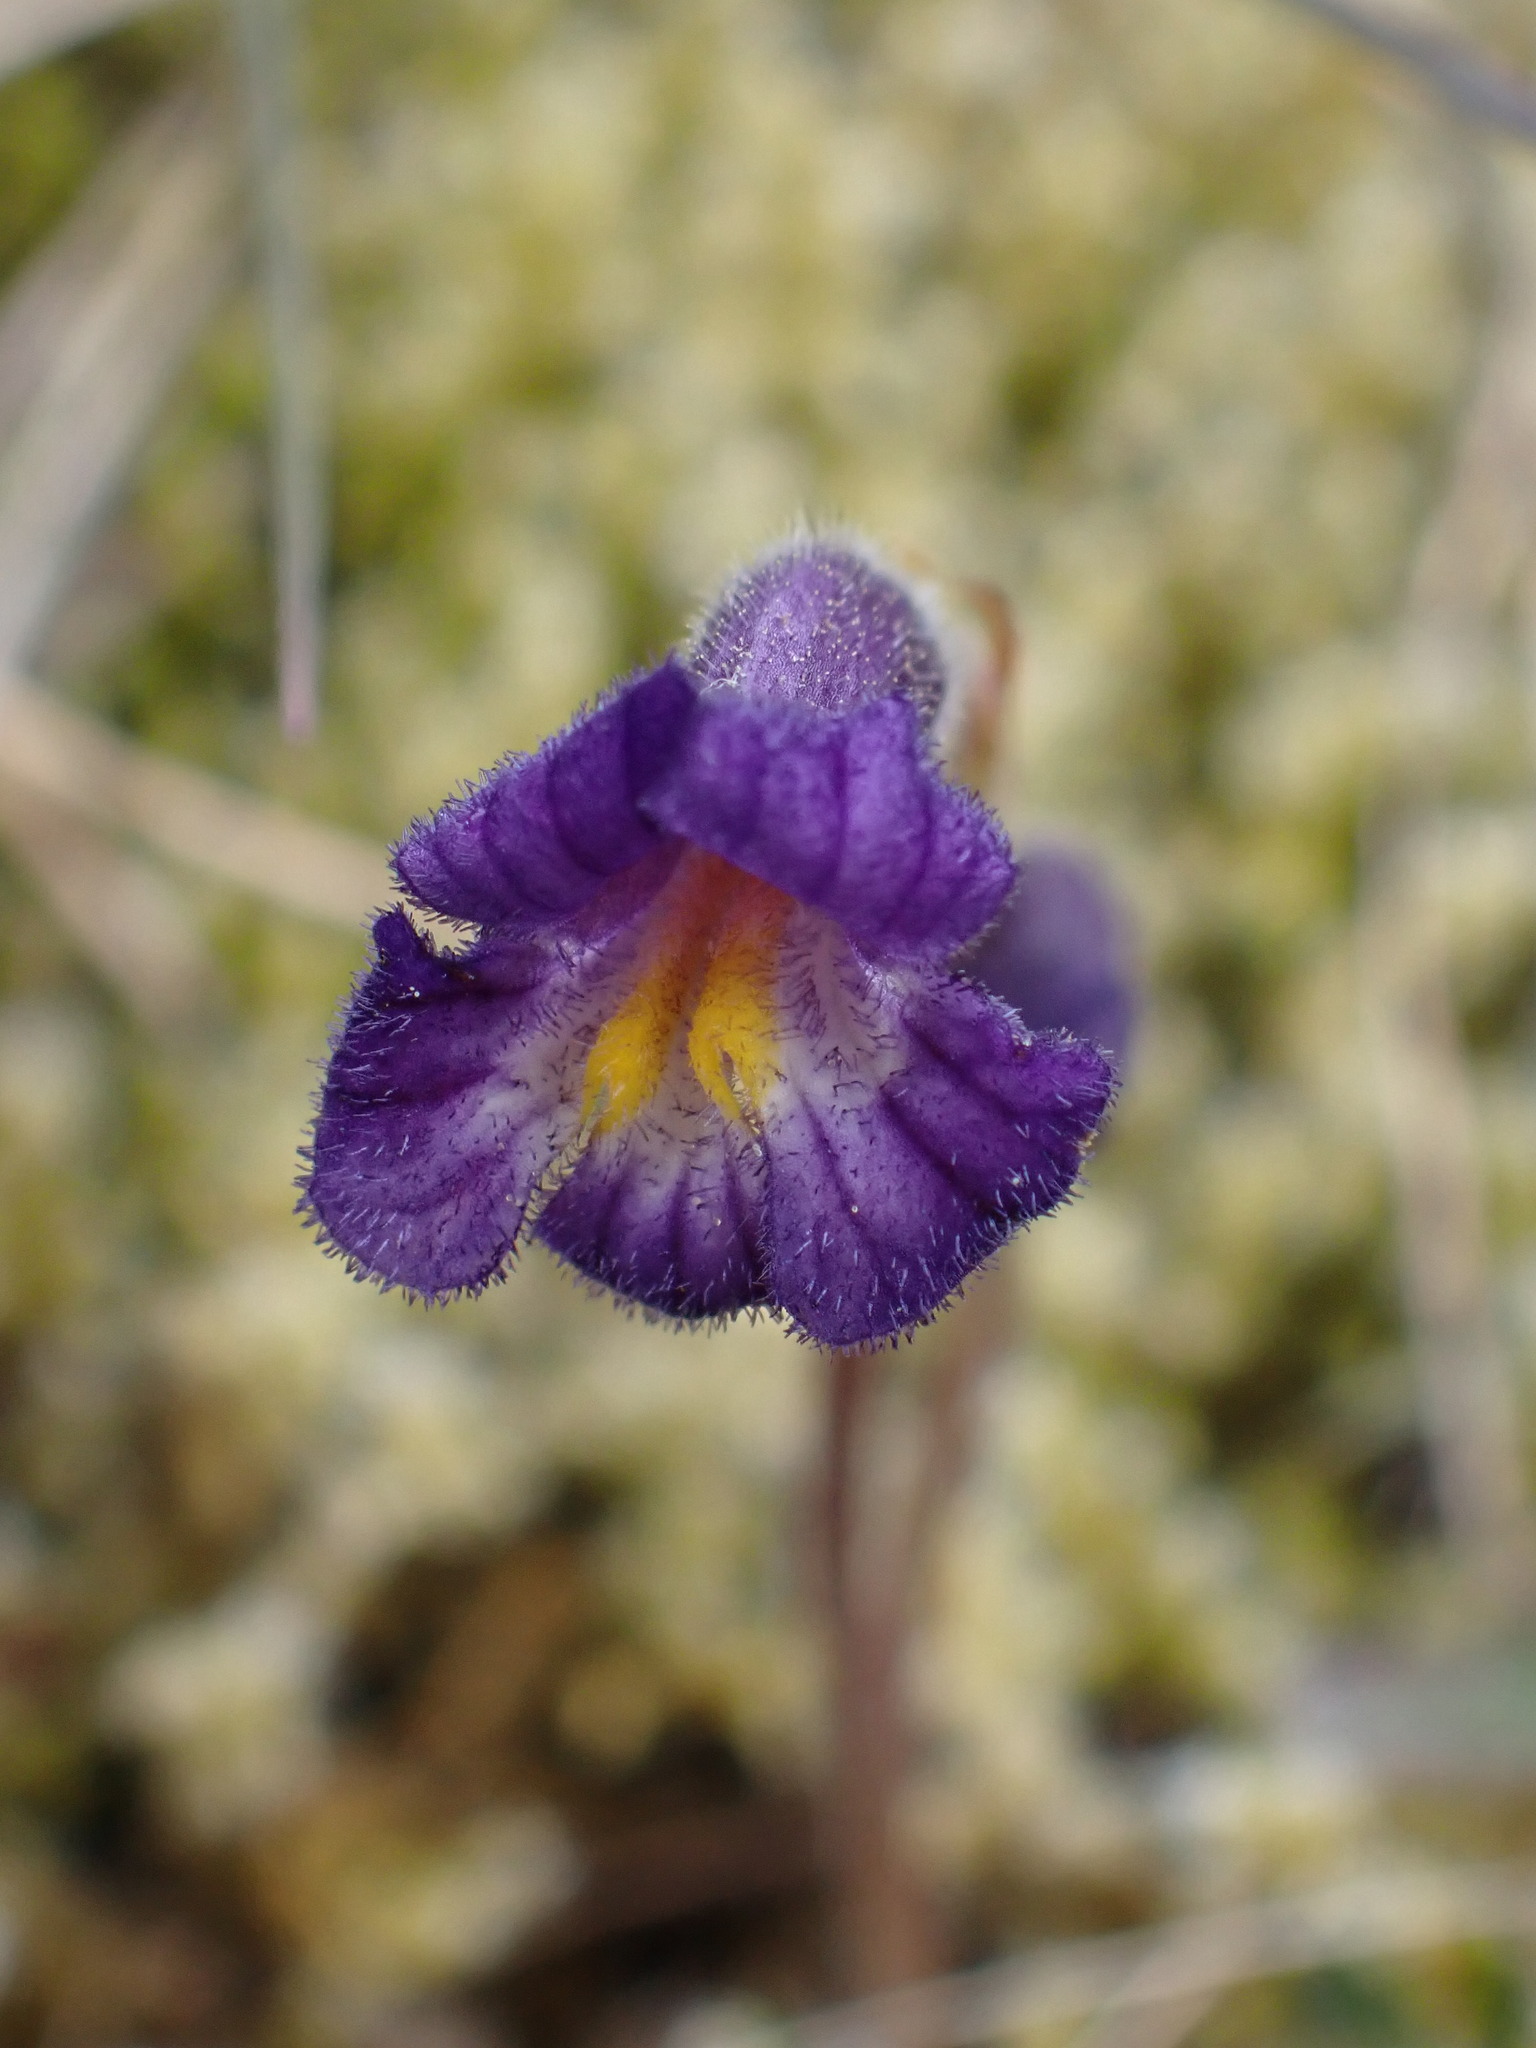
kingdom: Plantae
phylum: Tracheophyta
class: Magnoliopsida
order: Lamiales
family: Orobanchaceae
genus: Aphyllon
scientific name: Aphyllon uniflorum
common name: One-flowered broomrape
